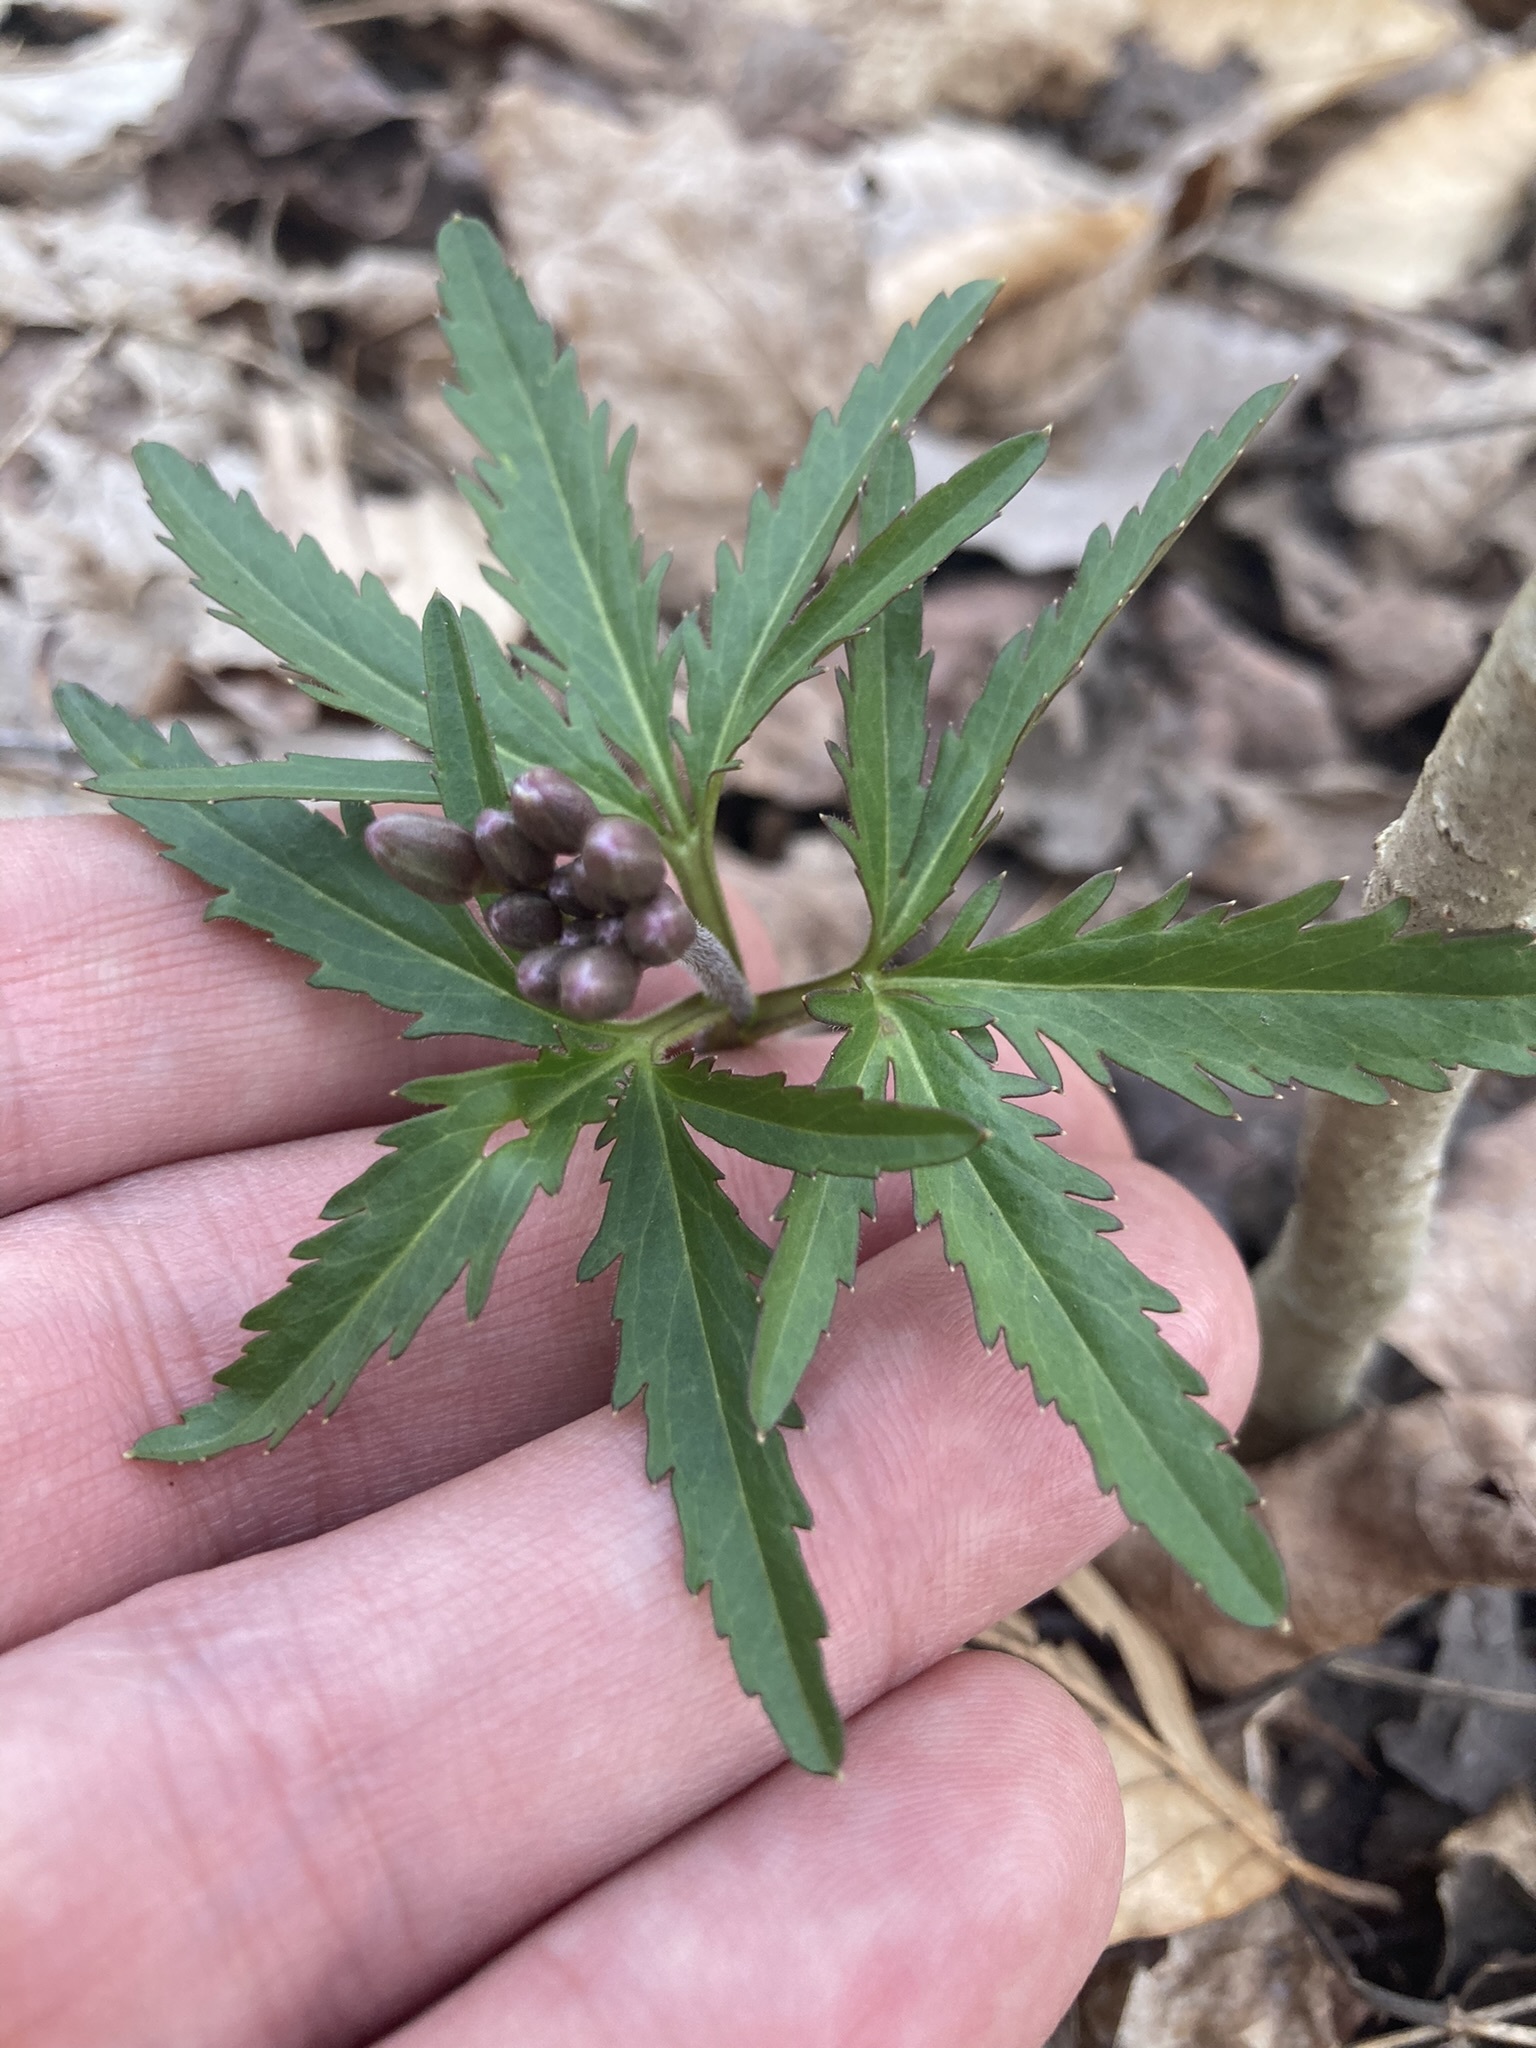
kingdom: Plantae
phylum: Tracheophyta
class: Magnoliopsida
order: Brassicales
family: Brassicaceae
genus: Cardamine
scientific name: Cardamine concatenata
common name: Cut-leaf toothcup
